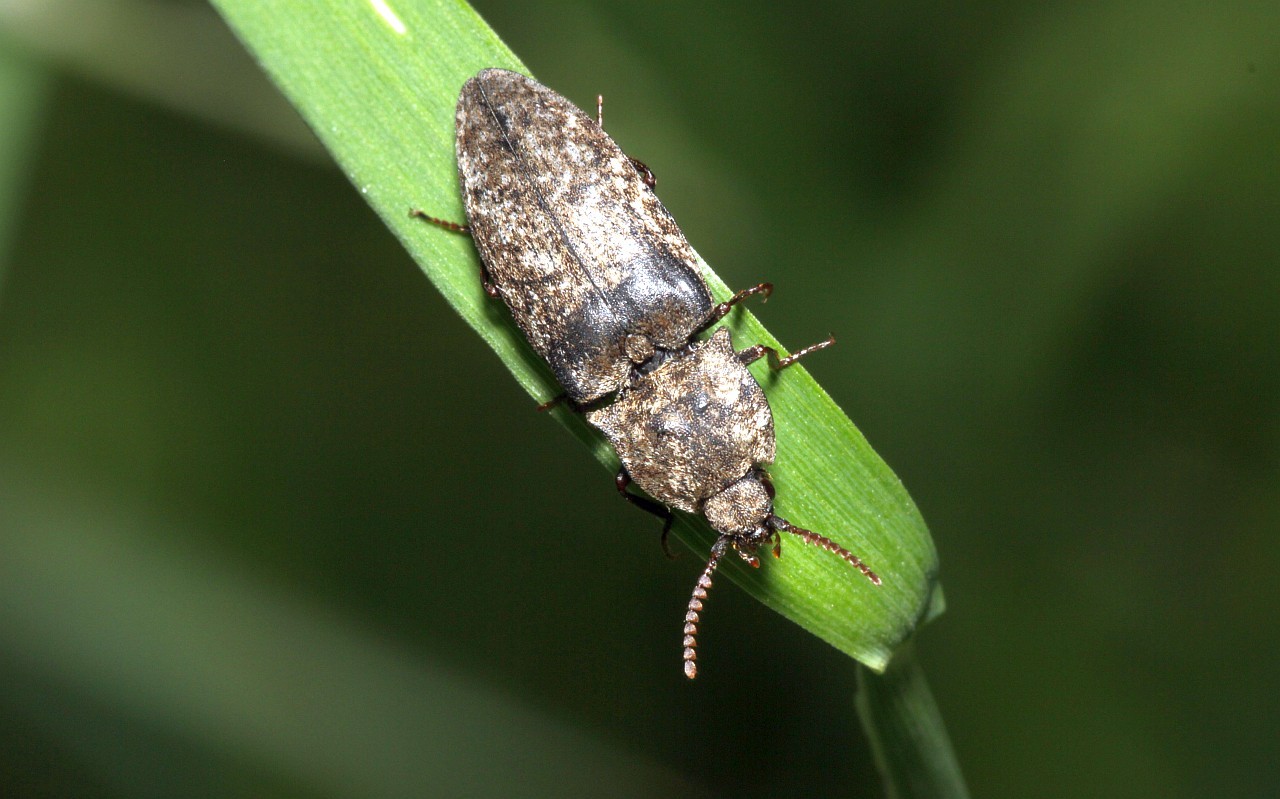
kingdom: Animalia
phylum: Arthropoda
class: Insecta
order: Coleoptera
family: Elateridae
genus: Agrypnus
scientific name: Agrypnus murinus
